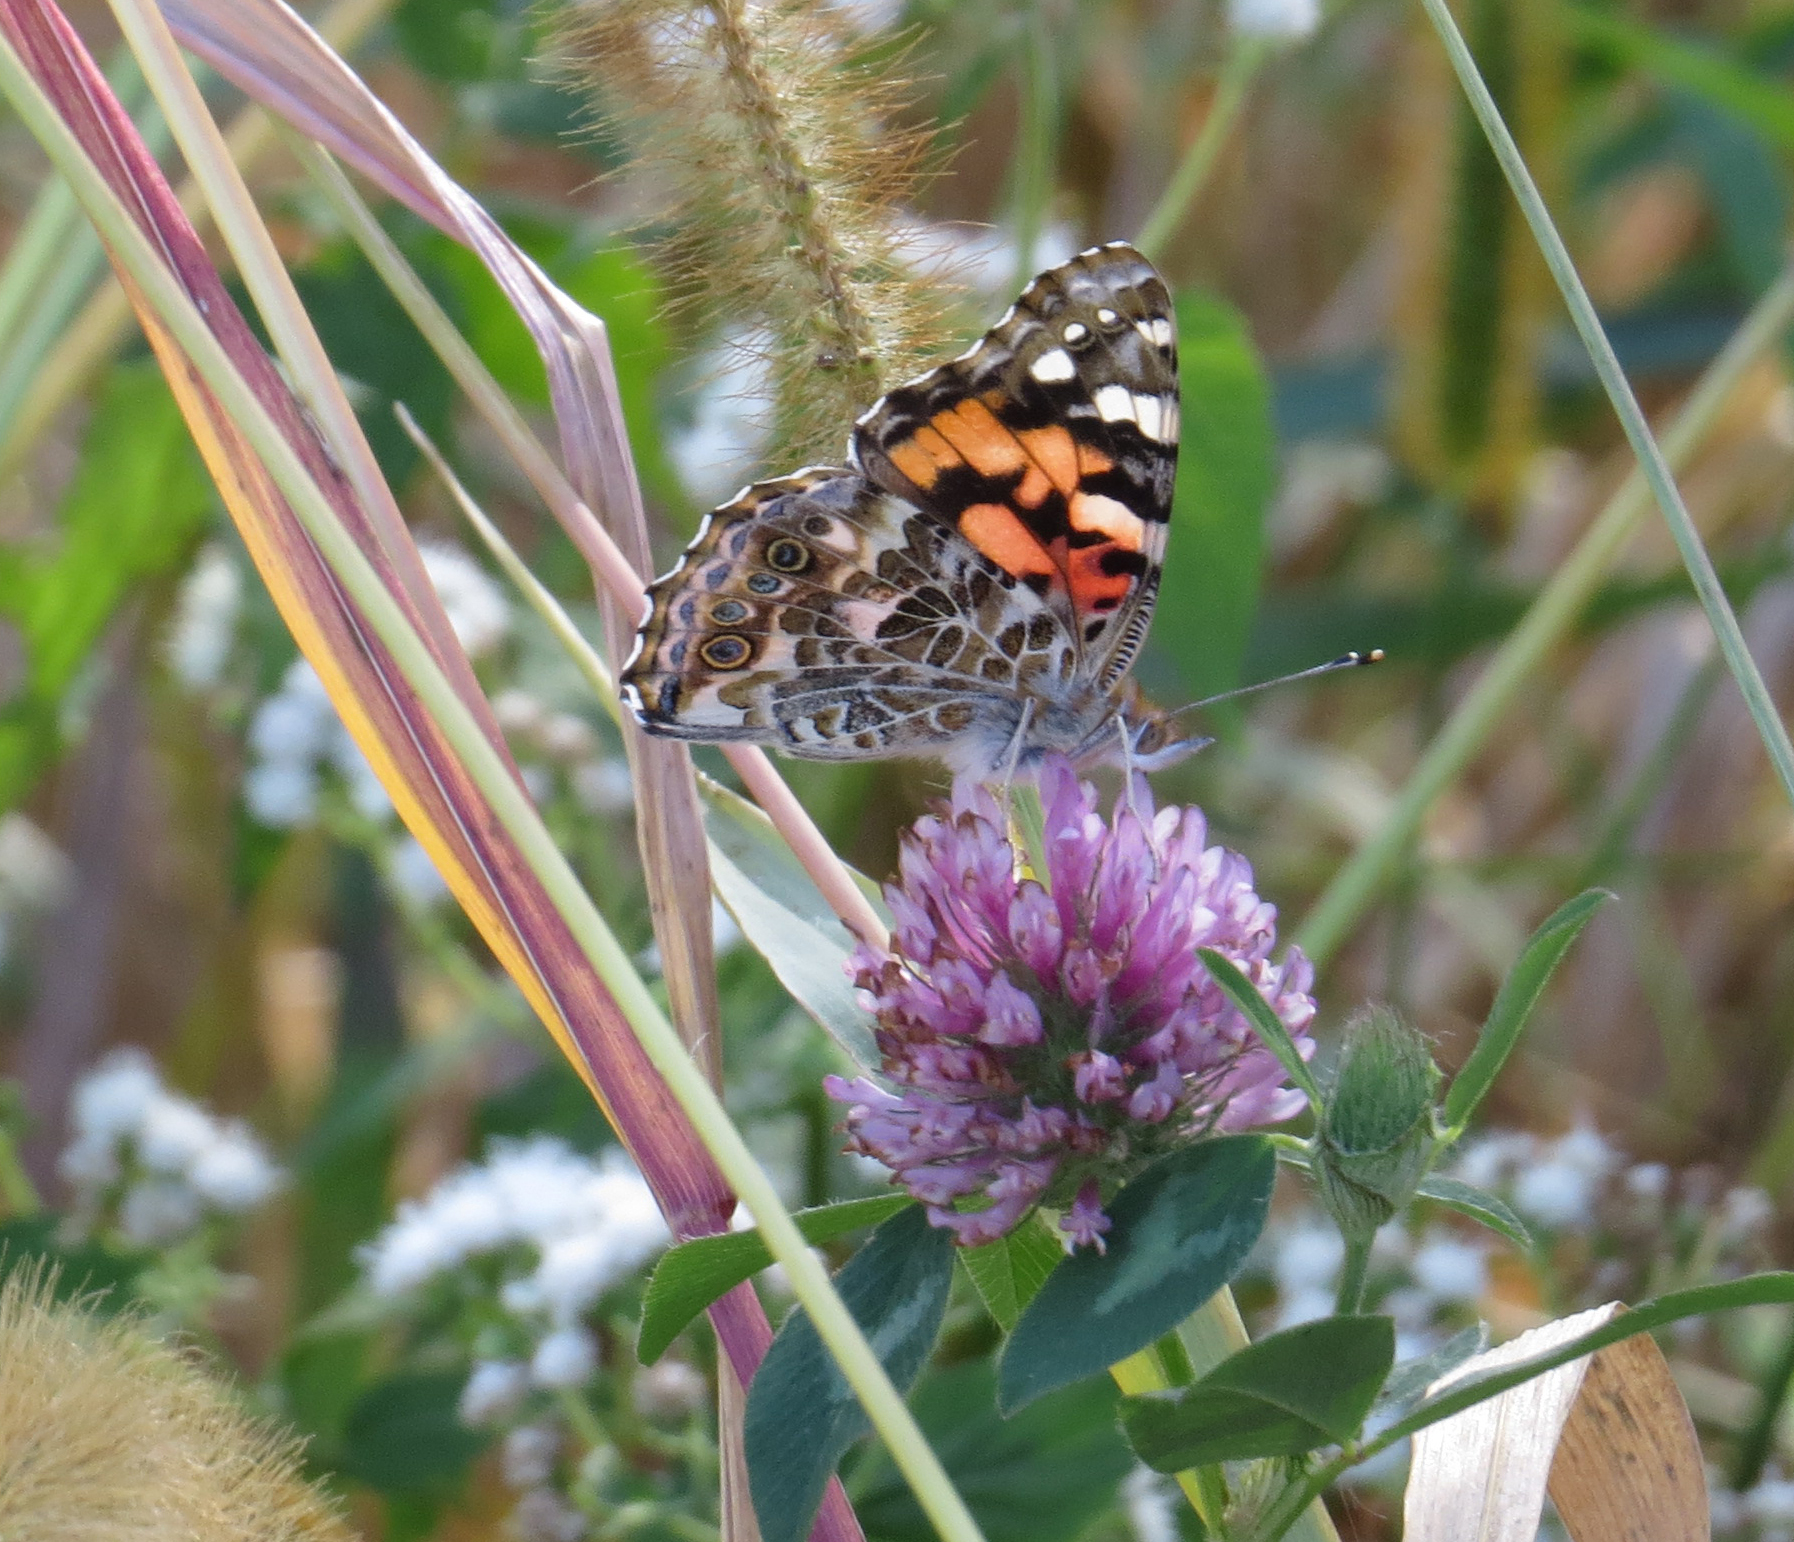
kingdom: Animalia
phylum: Arthropoda
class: Insecta
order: Lepidoptera
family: Nymphalidae
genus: Vanessa
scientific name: Vanessa cardui
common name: Painted lady
